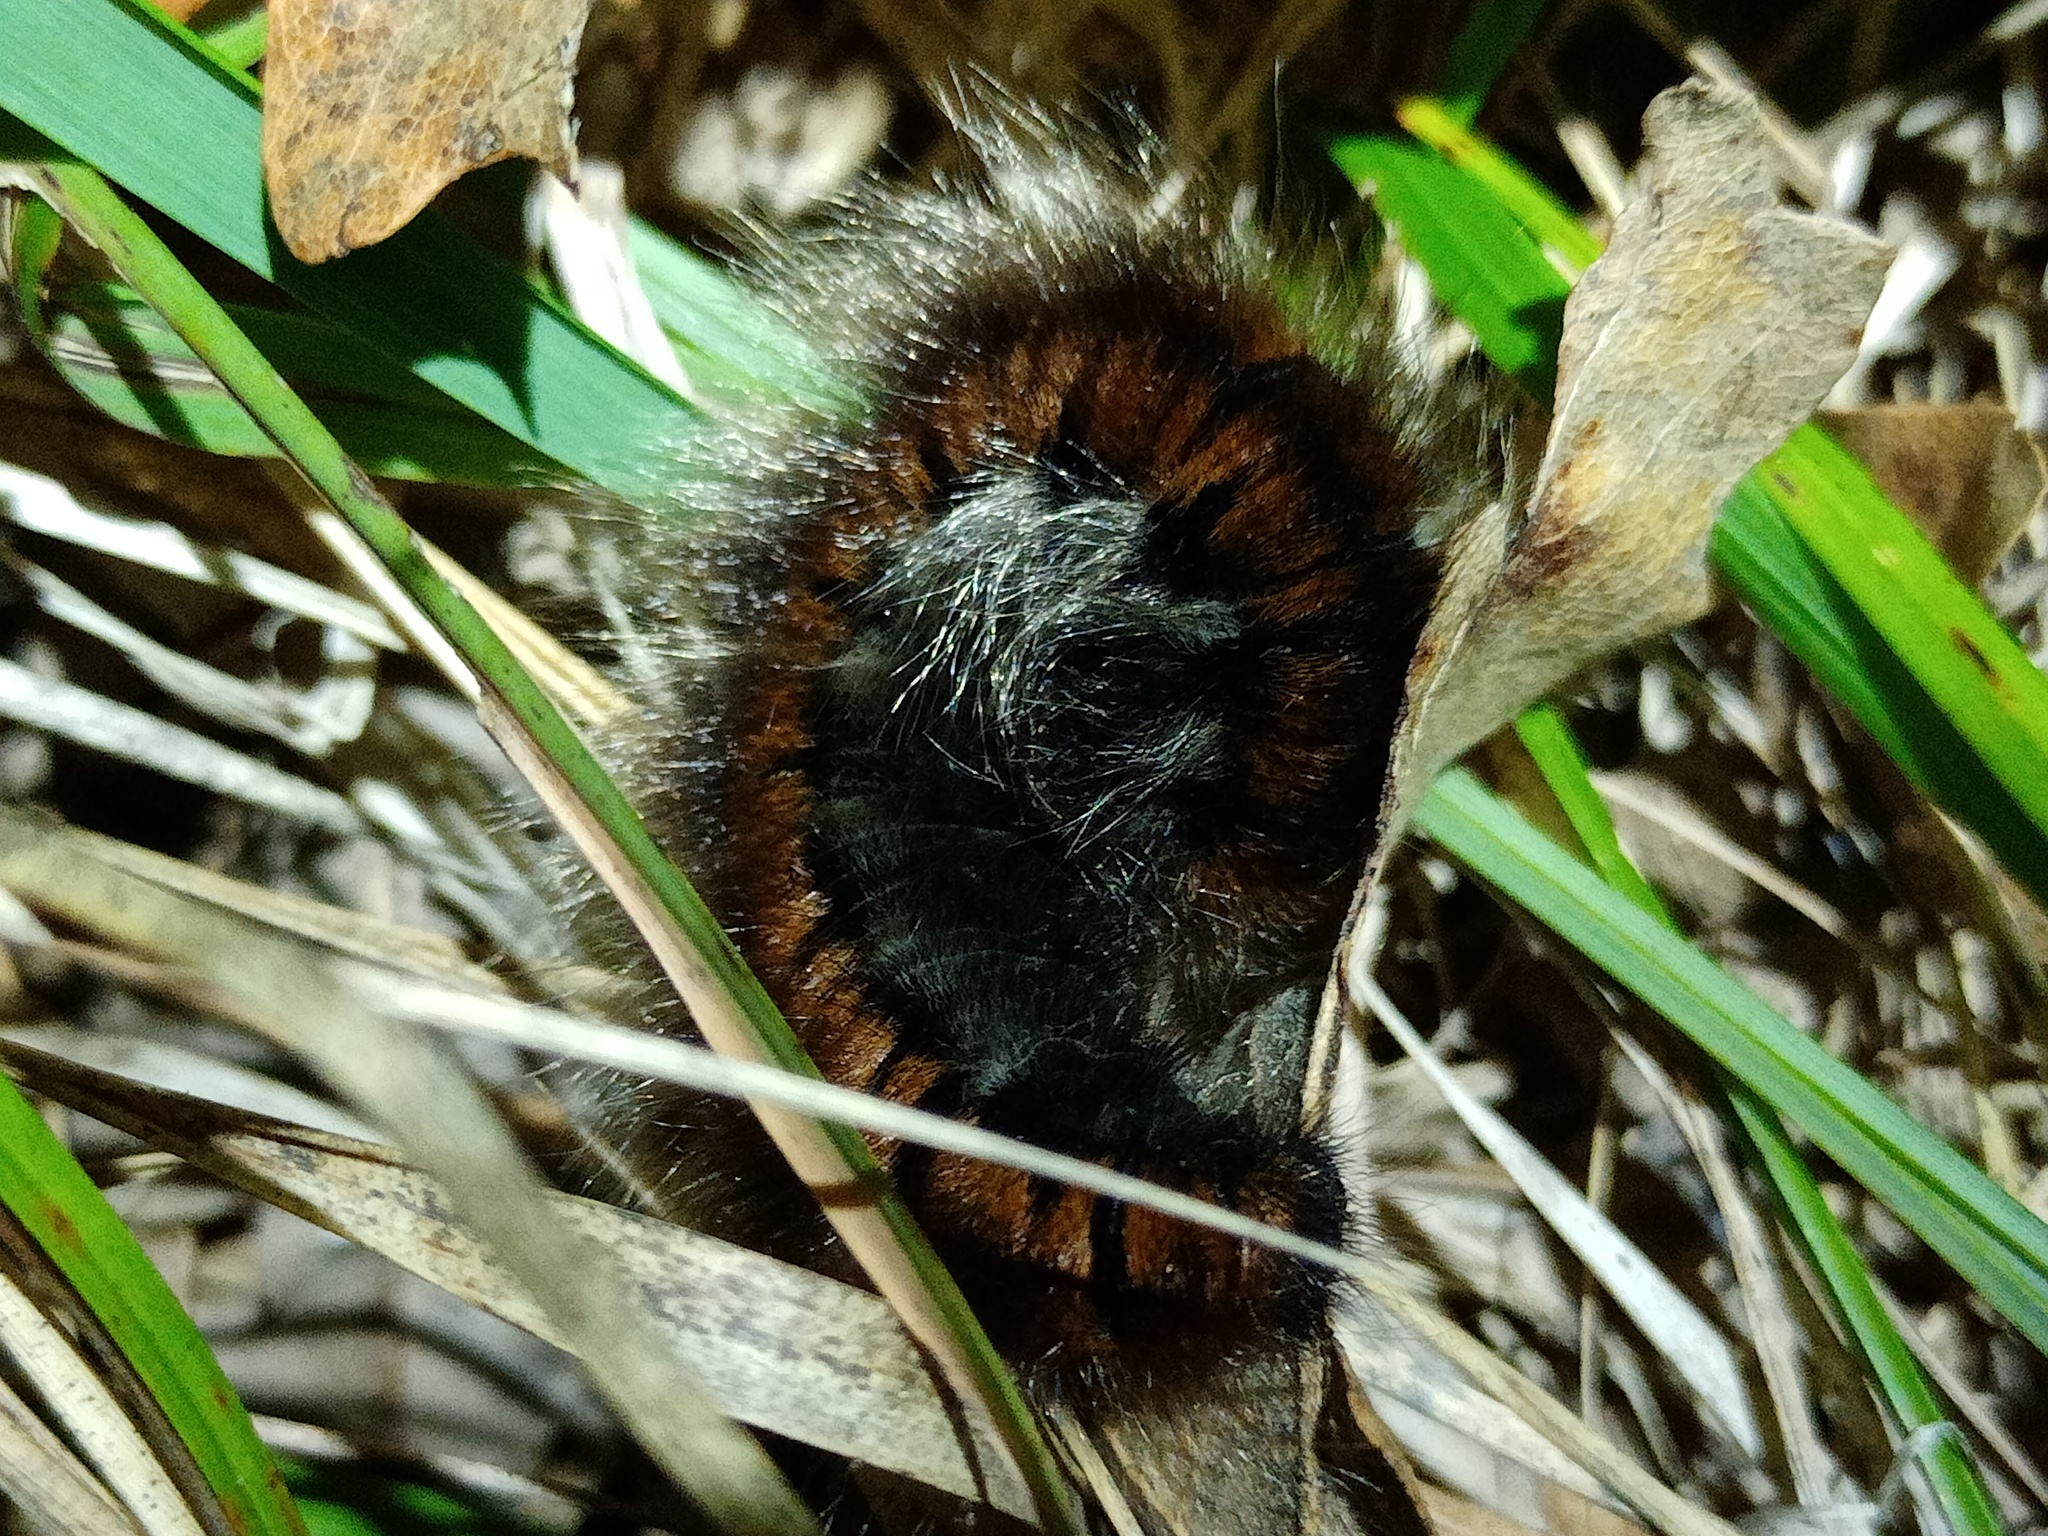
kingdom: Animalia
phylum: Arthropoda
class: Insecta
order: Lepidoptera
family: Lasiocampidae
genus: Macrothylacia
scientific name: Macrothylacia rubi
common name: Fox moth
